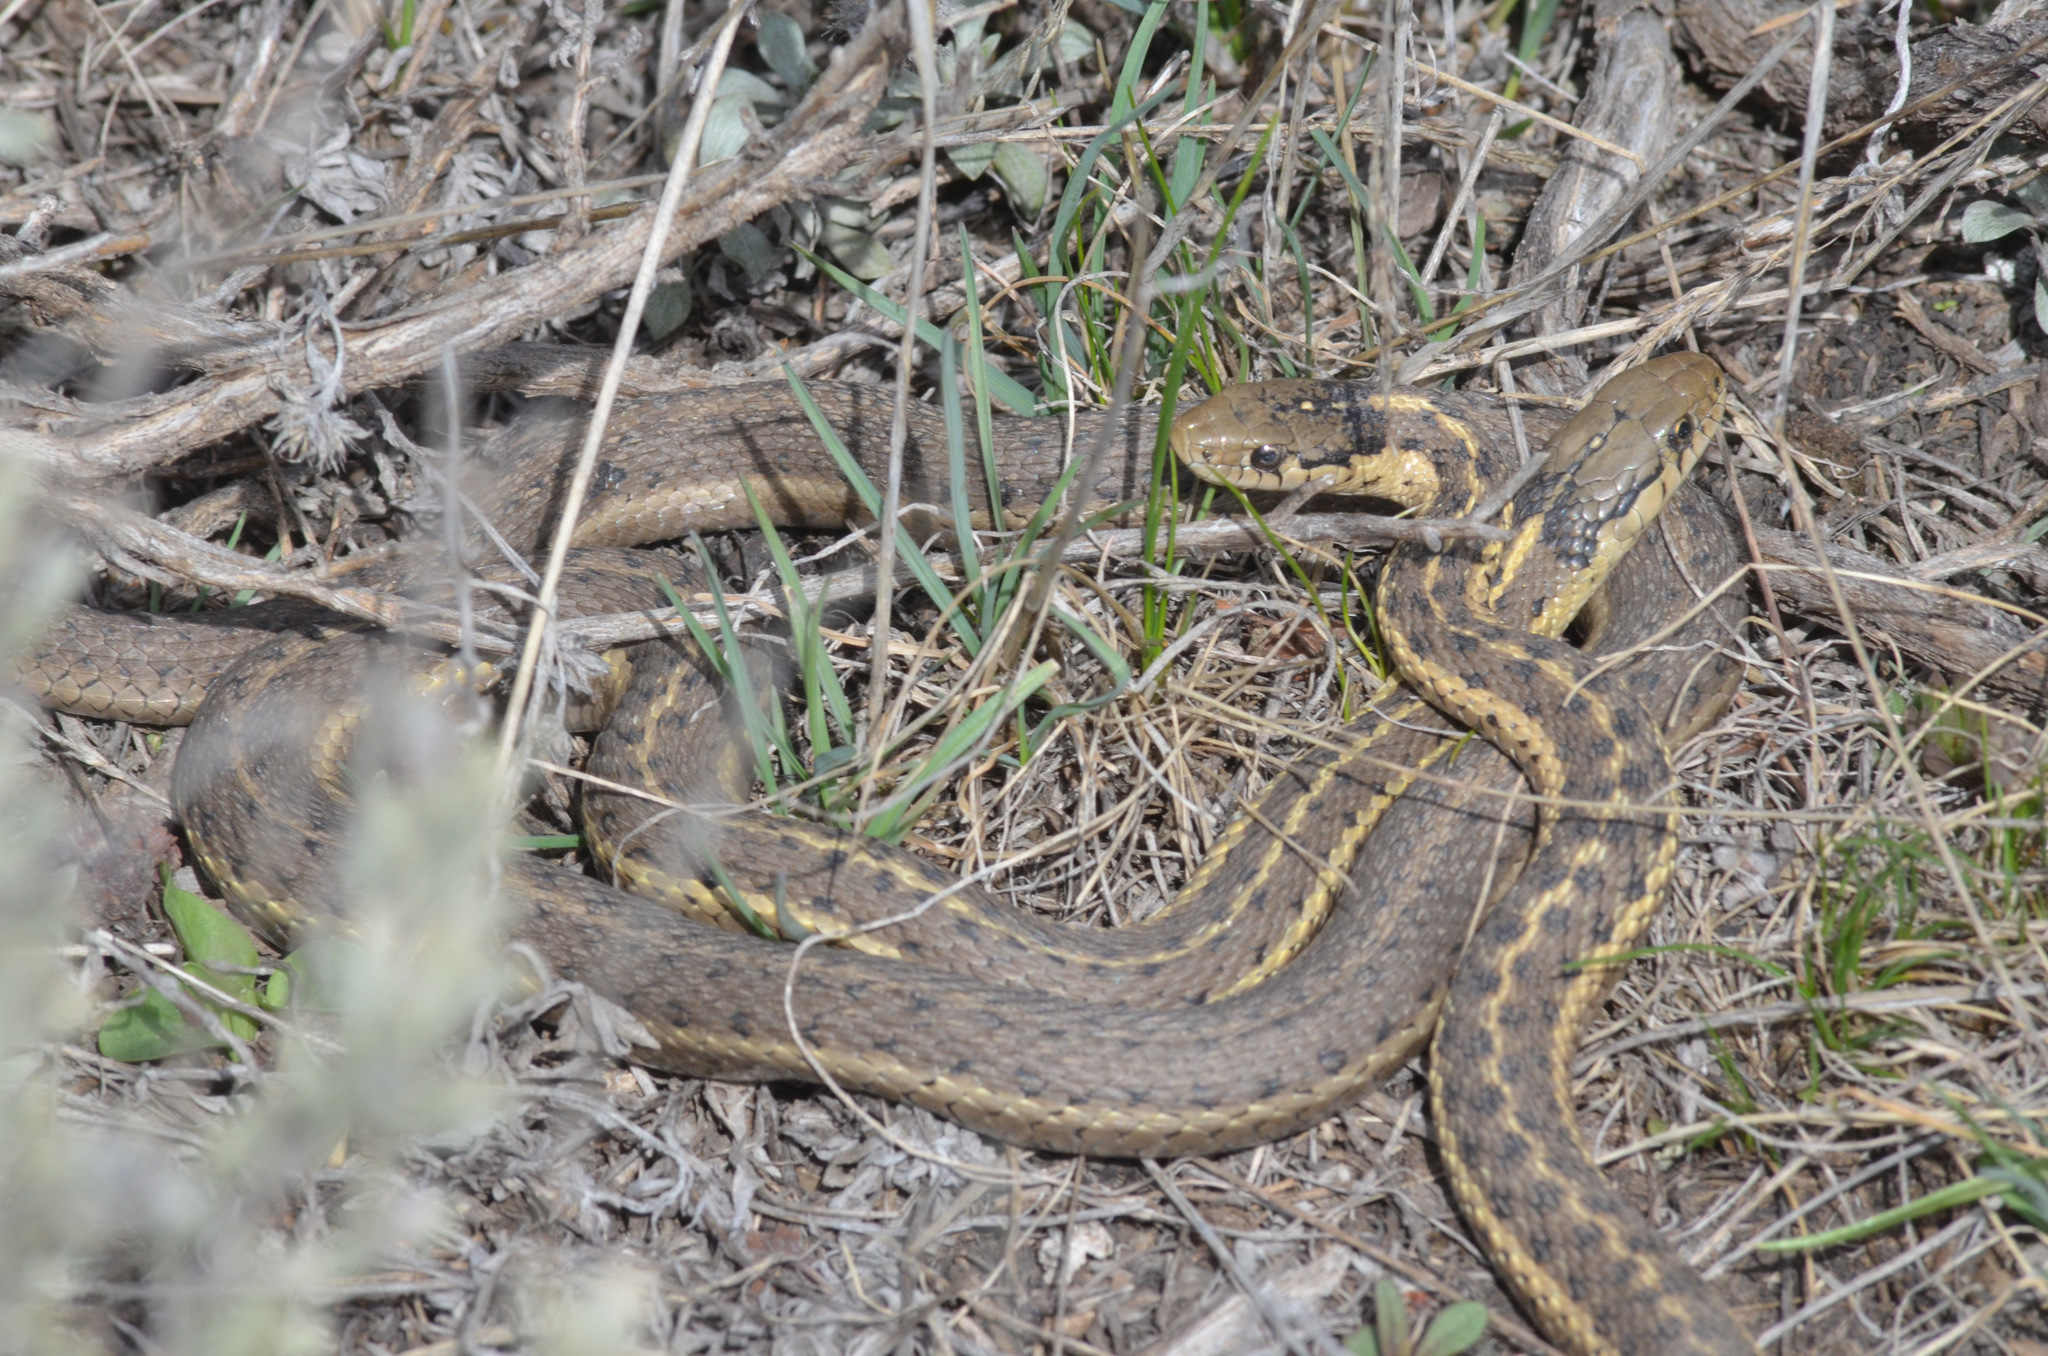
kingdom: Animalia
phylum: Chordata
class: Squamata
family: Colubridae
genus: Thamnophis
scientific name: Thamnophis elegans
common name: Western terrestrial garter snake
